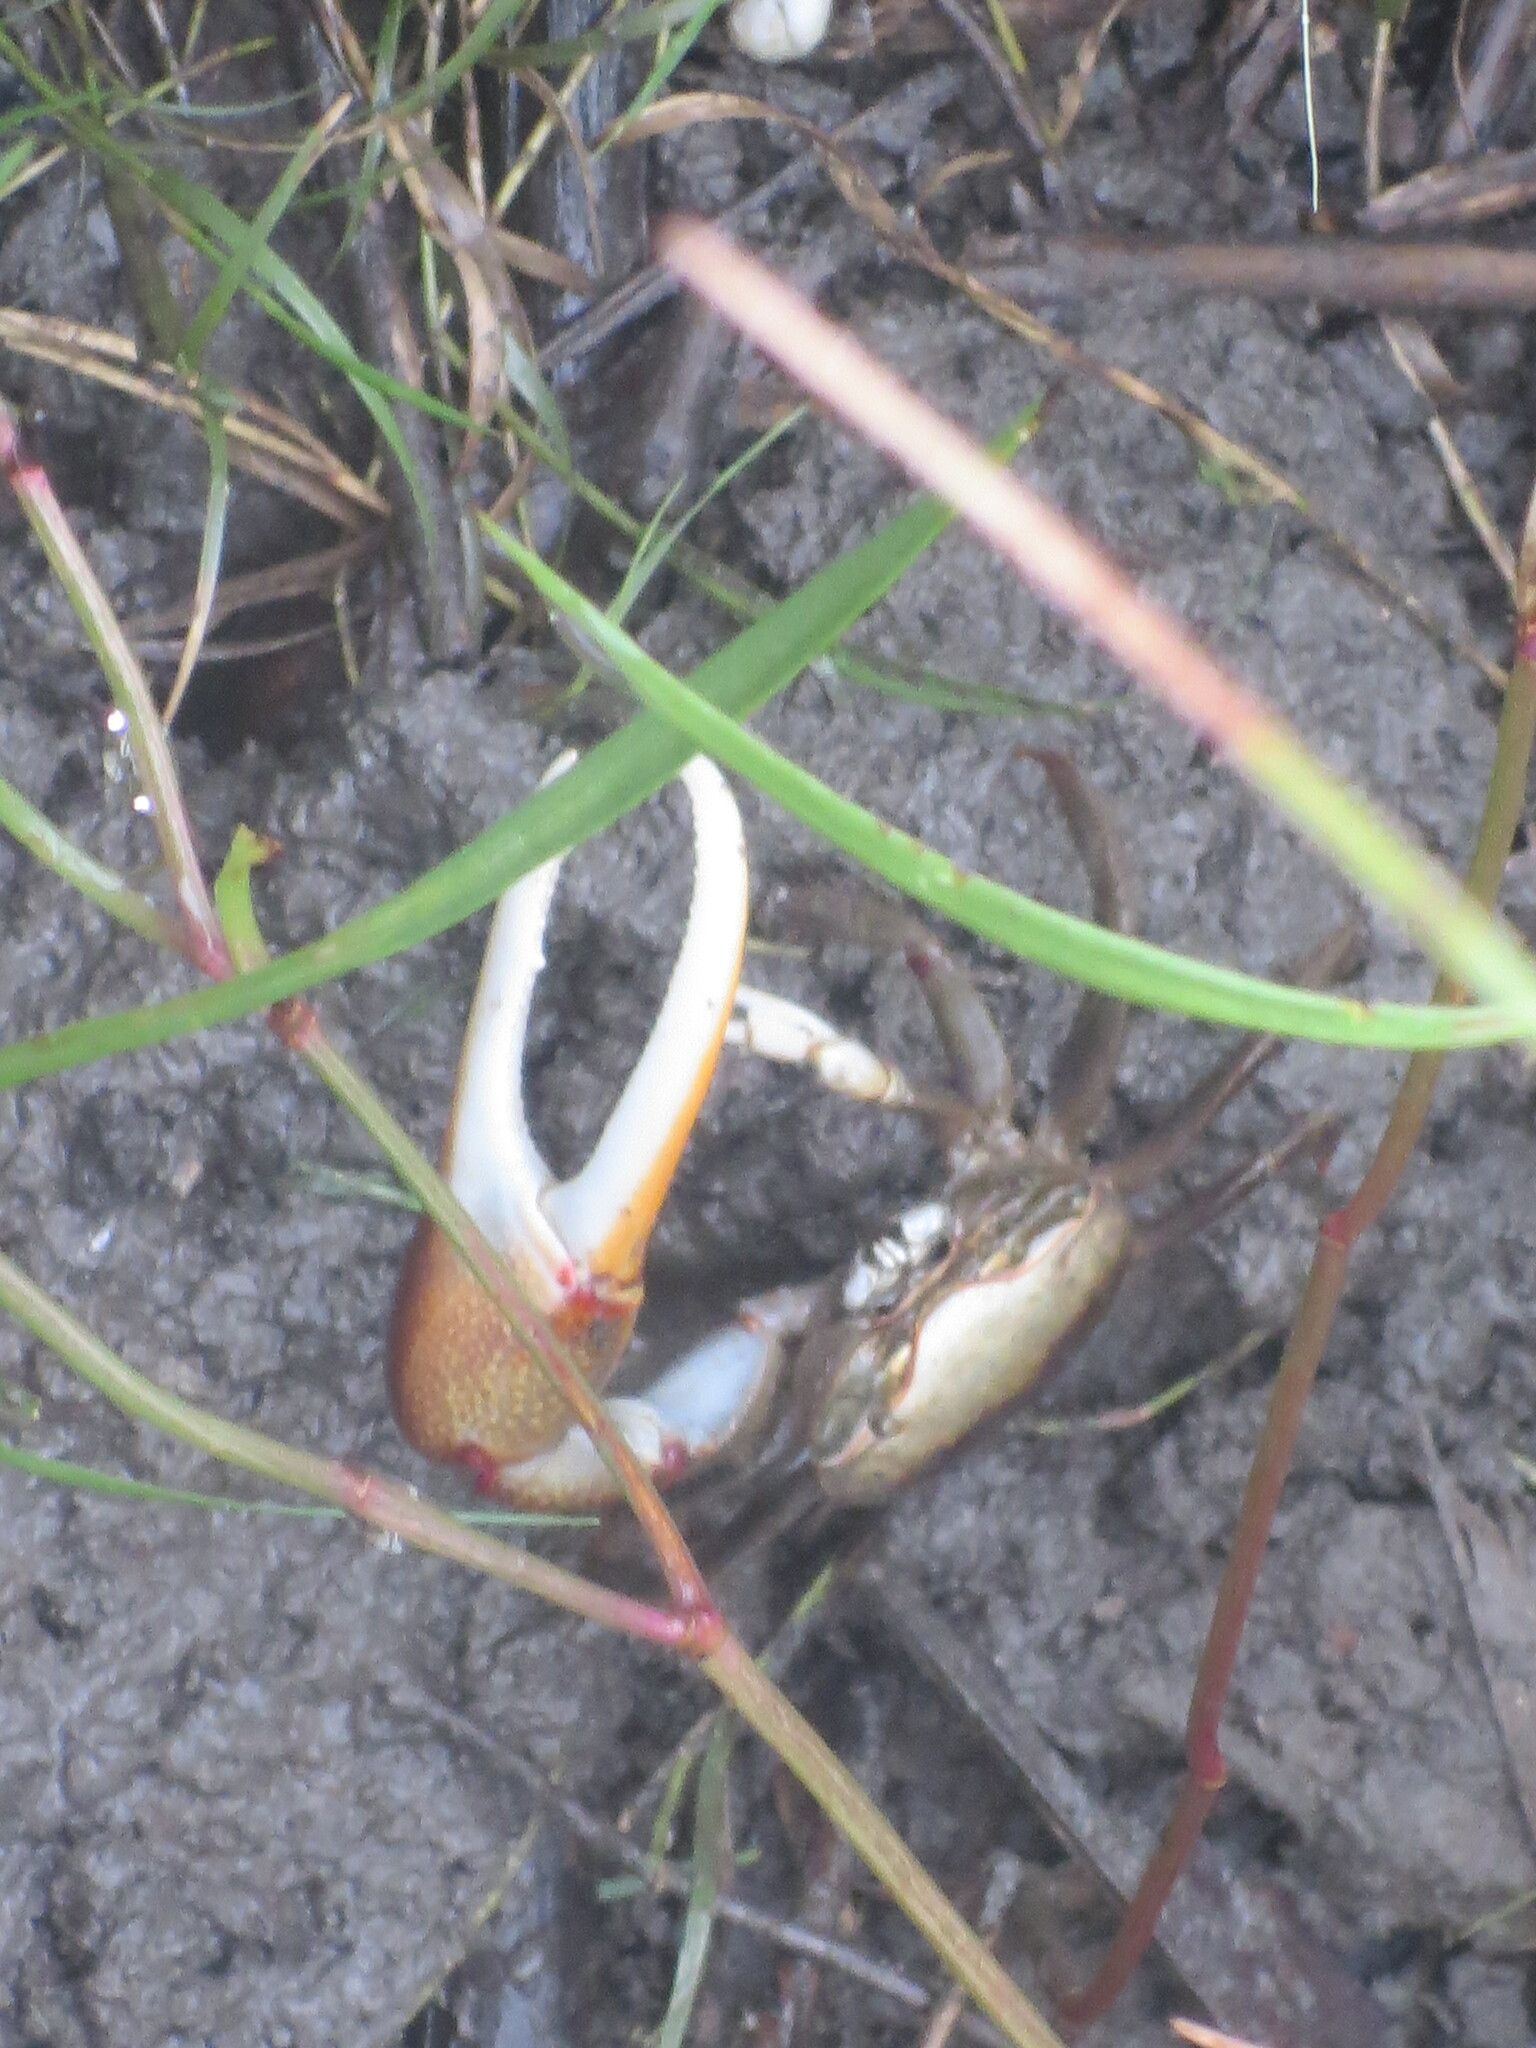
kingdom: Animalia
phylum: Arthropoda
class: Malacostraca
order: Decapoda
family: Ocypodidae
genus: Minuca
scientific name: Minuca minax
